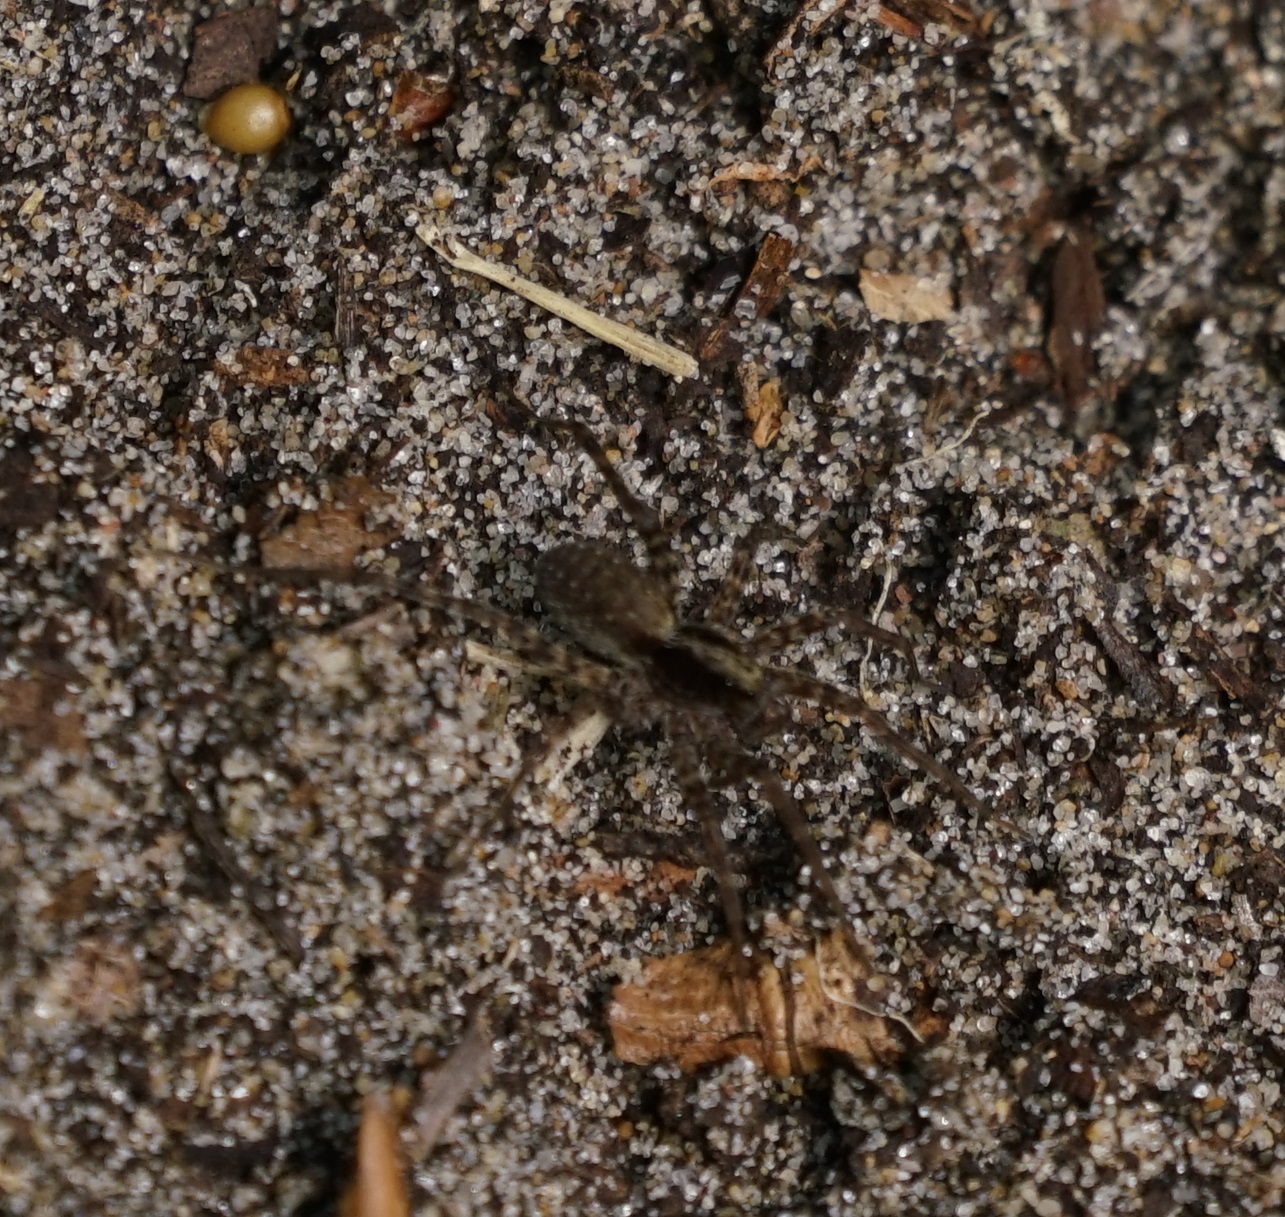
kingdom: Animalia
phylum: Arthropoda
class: Arachnida
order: Araneae
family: Lycosidae
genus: Pardosa
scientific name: Pardosa
